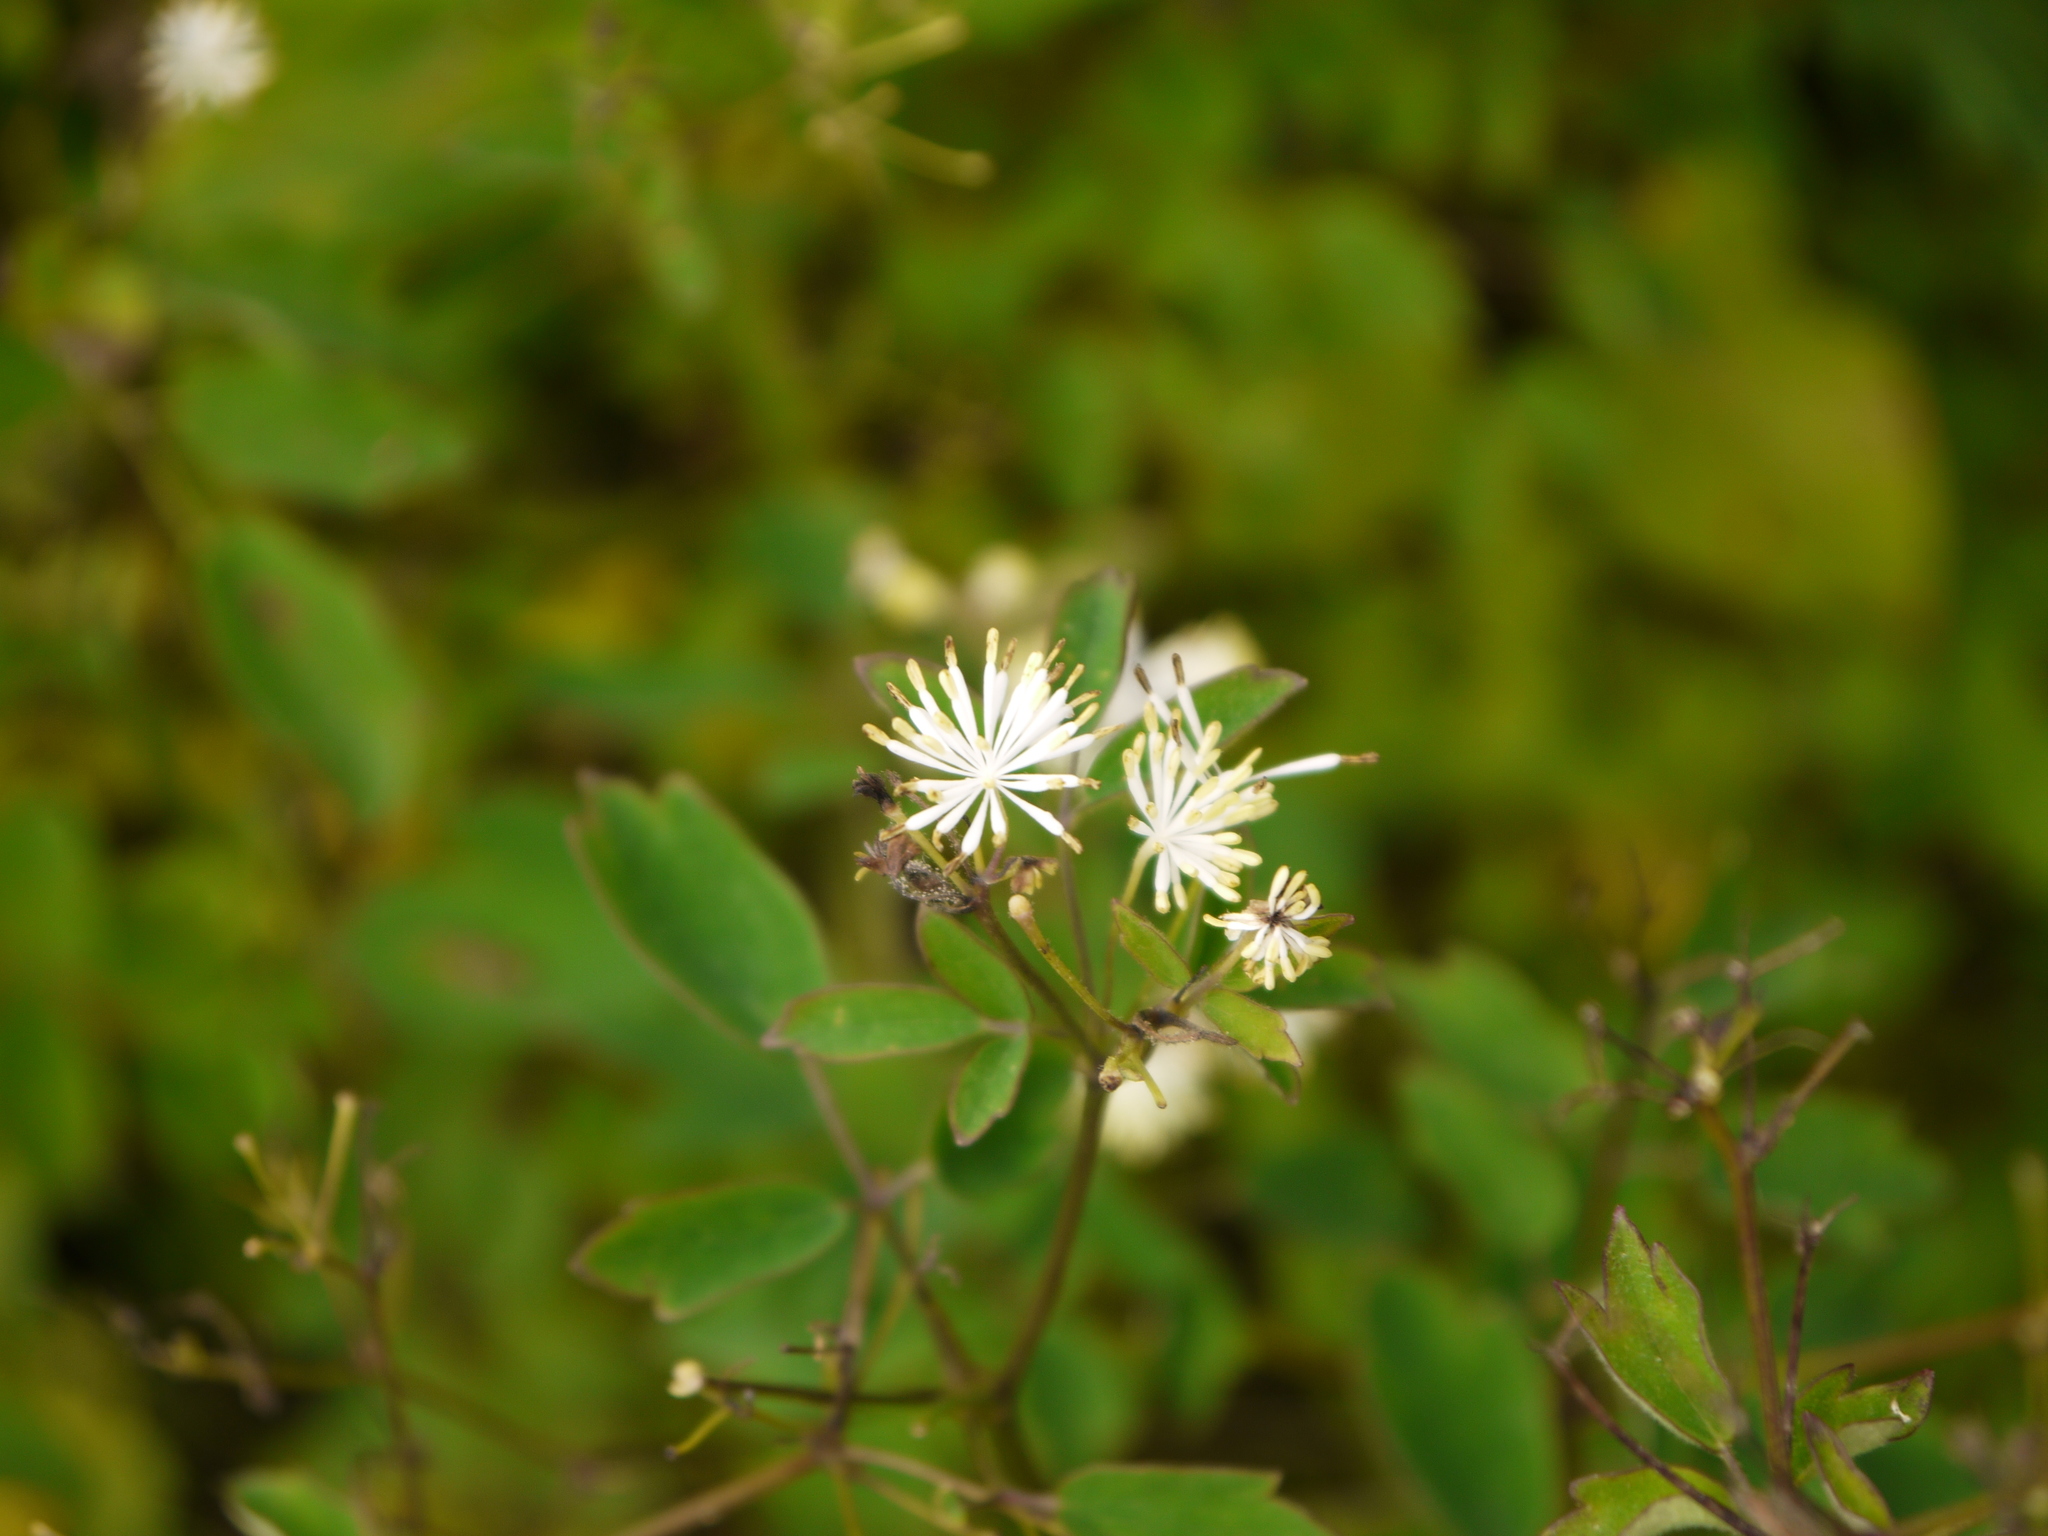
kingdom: Plantae
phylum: Tracheophyta
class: Magnoliopsida
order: Ranunculales
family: Ranunculaceae
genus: Thalictrum
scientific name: Thalictrum pubescens
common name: King-of-the-meadow
